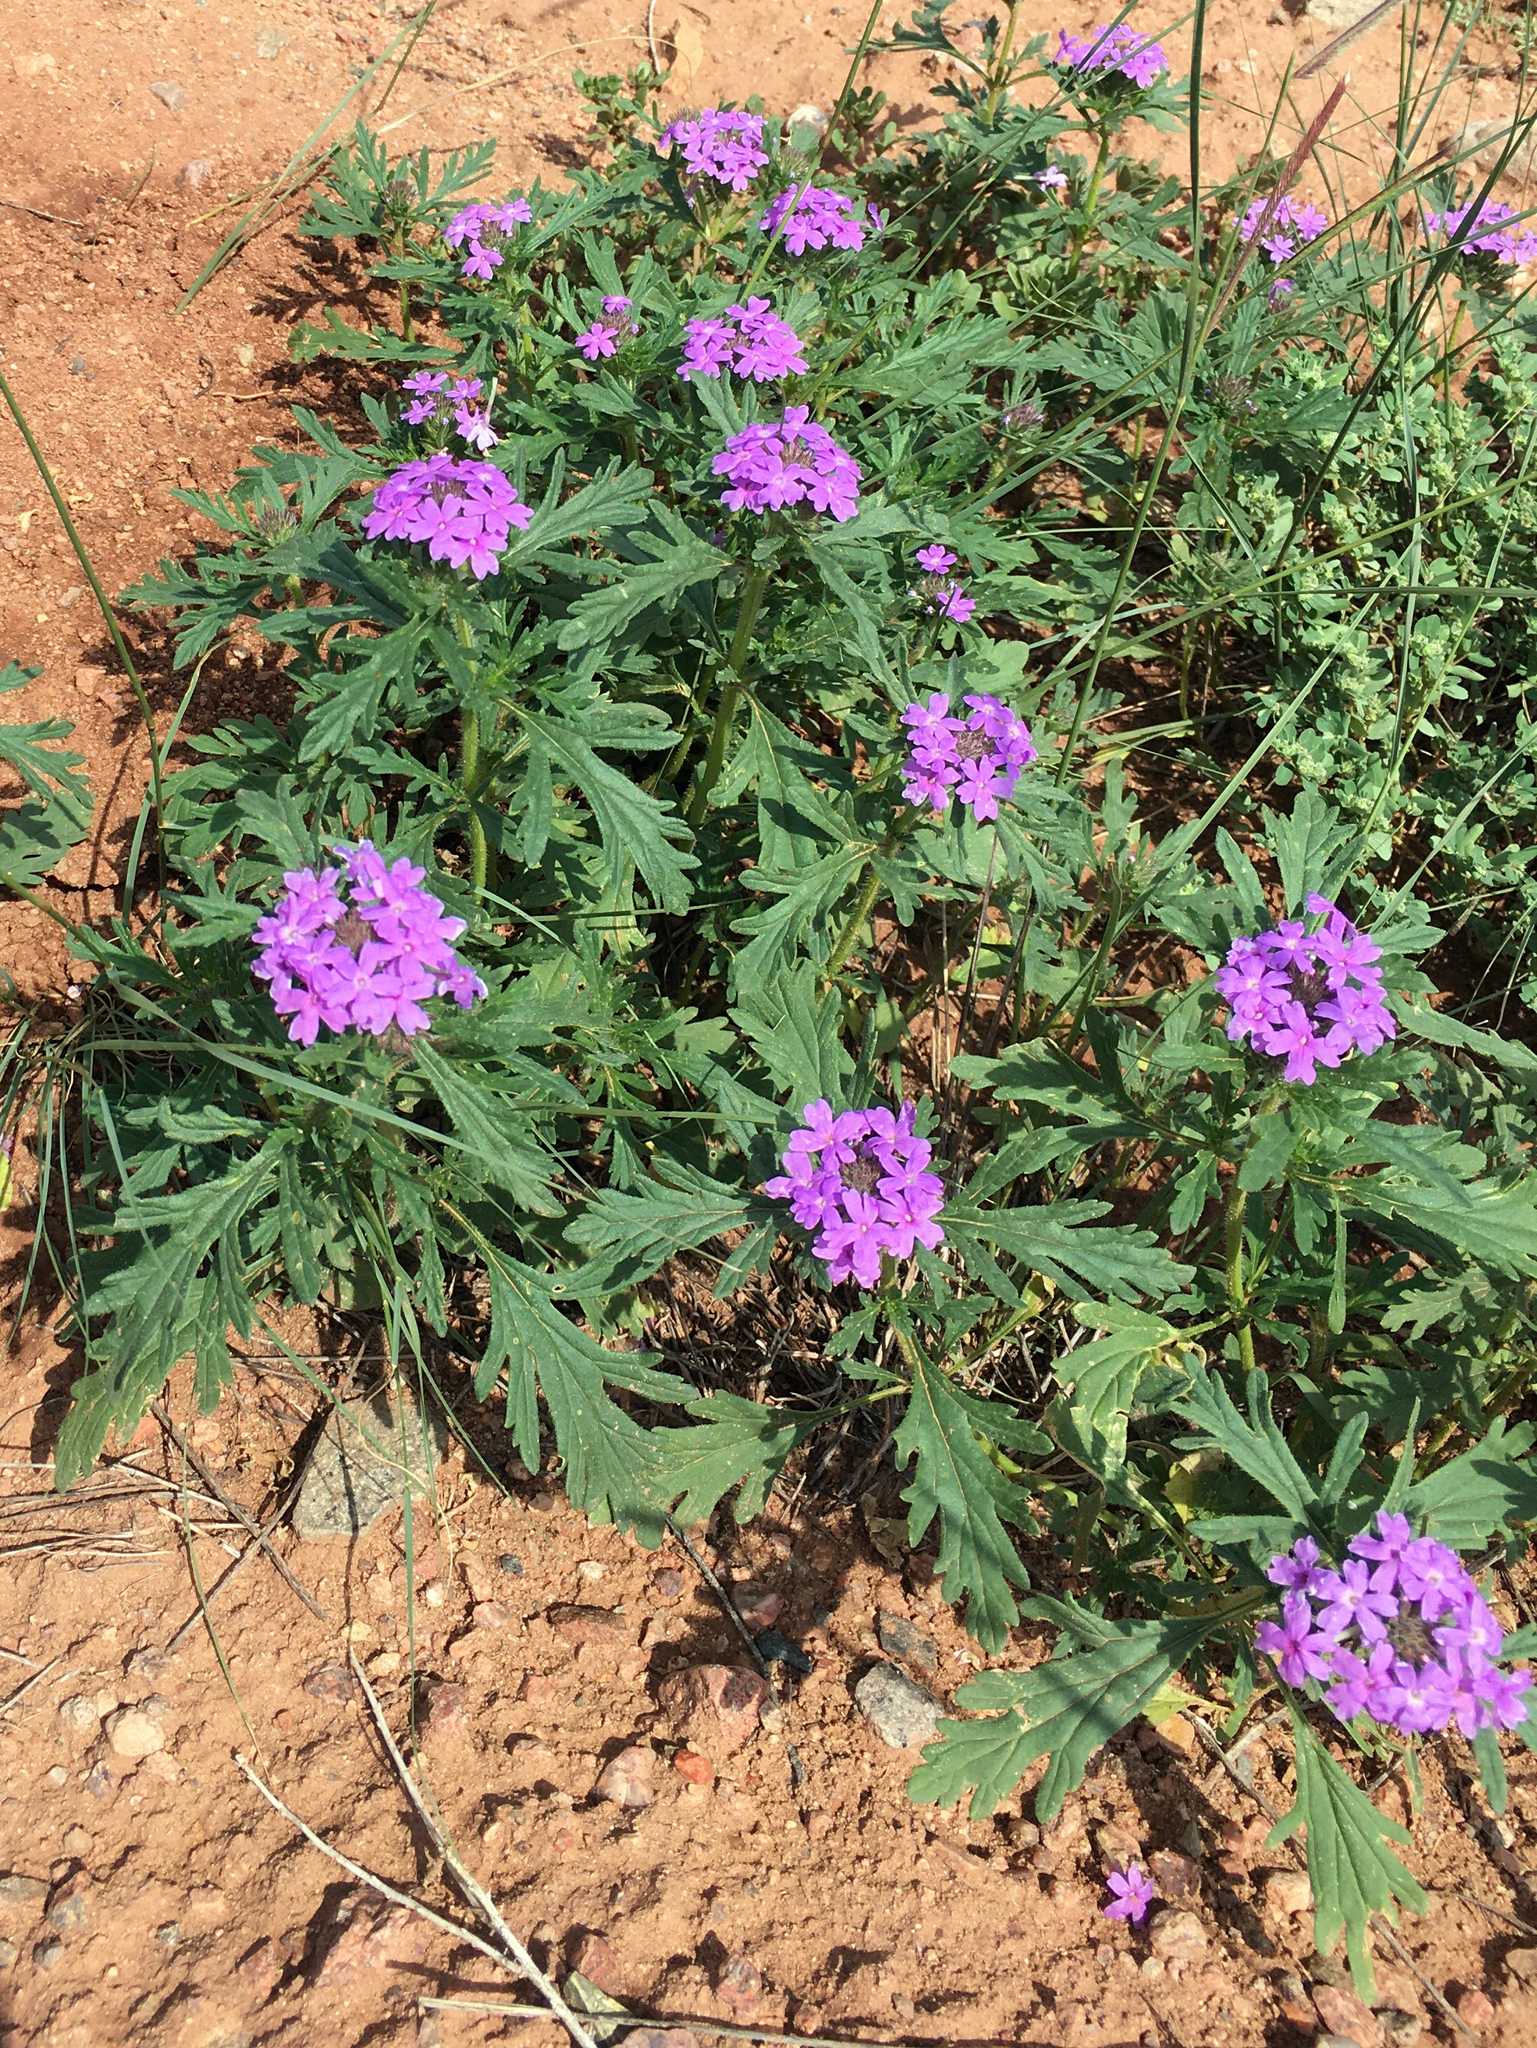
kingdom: Plantae
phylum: Tracheophyta
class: Magnoliopsida
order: Lamiales
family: Verbenaceae
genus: Verbena
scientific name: Verbena bipinnatifida
